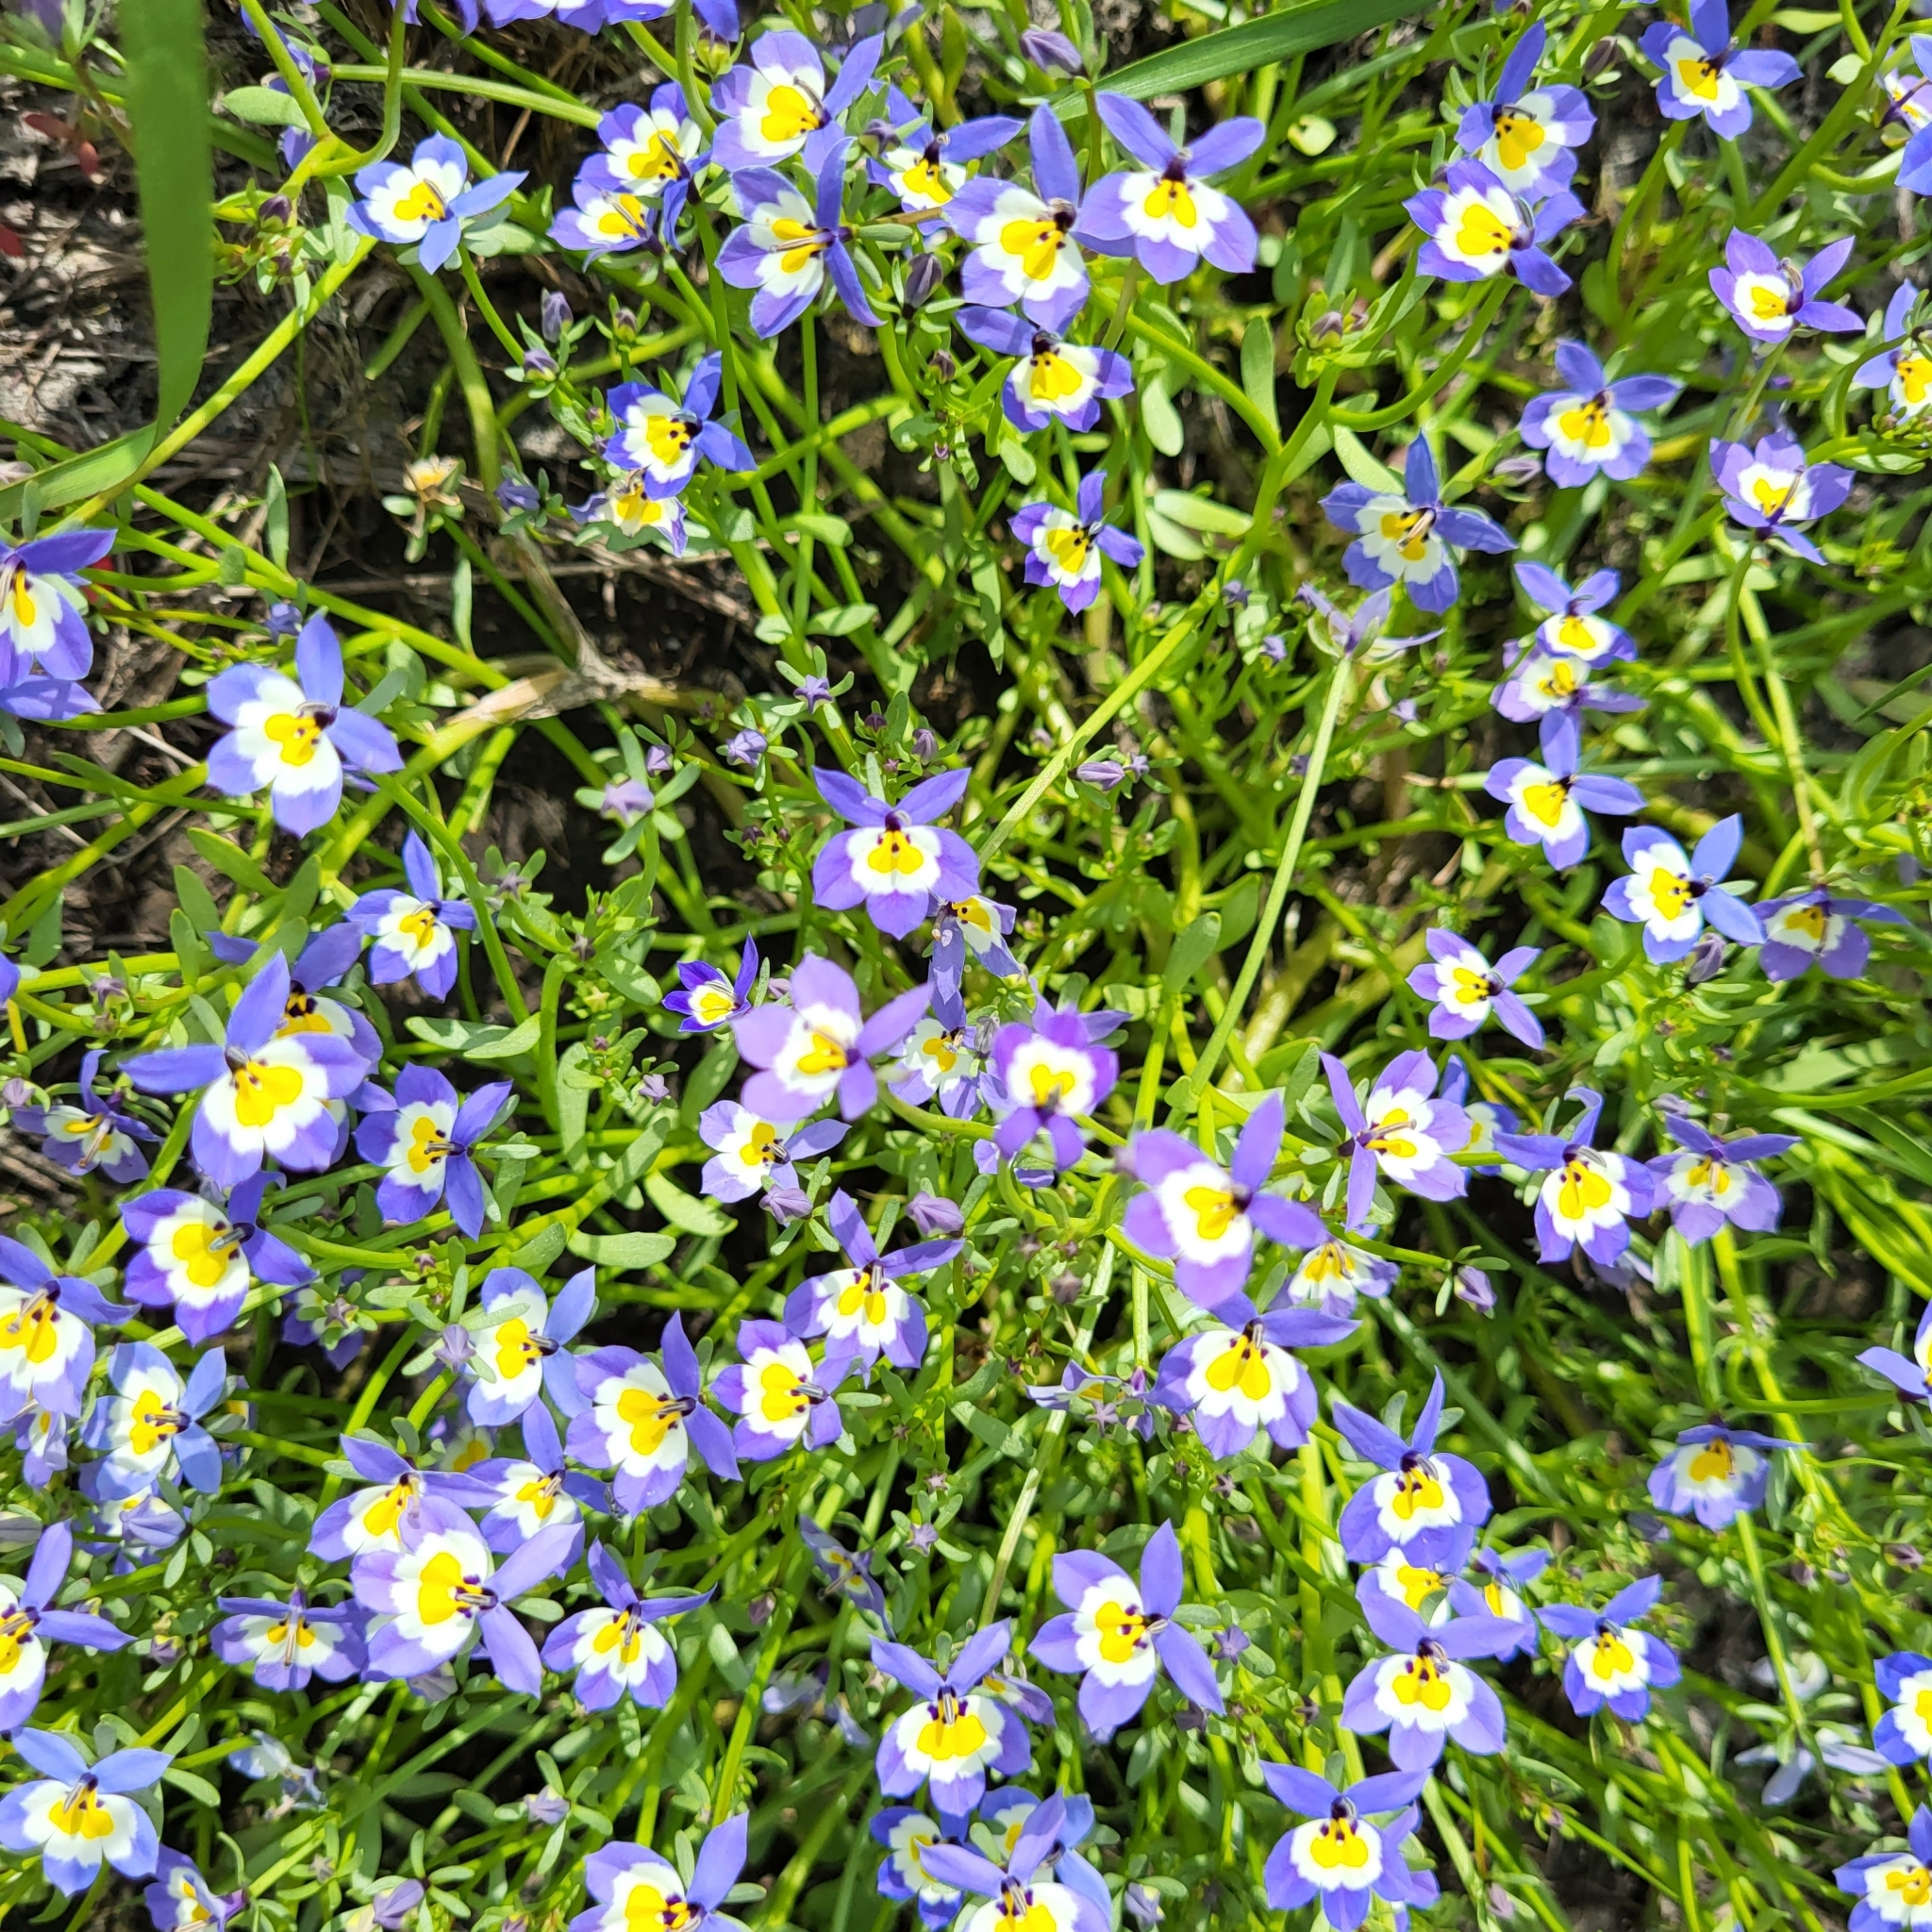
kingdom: Plantae
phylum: Tracheophyta
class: Magnoliopsida
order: Asterales
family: Campanulaceae
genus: Downingia
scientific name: Downingia pulchella
